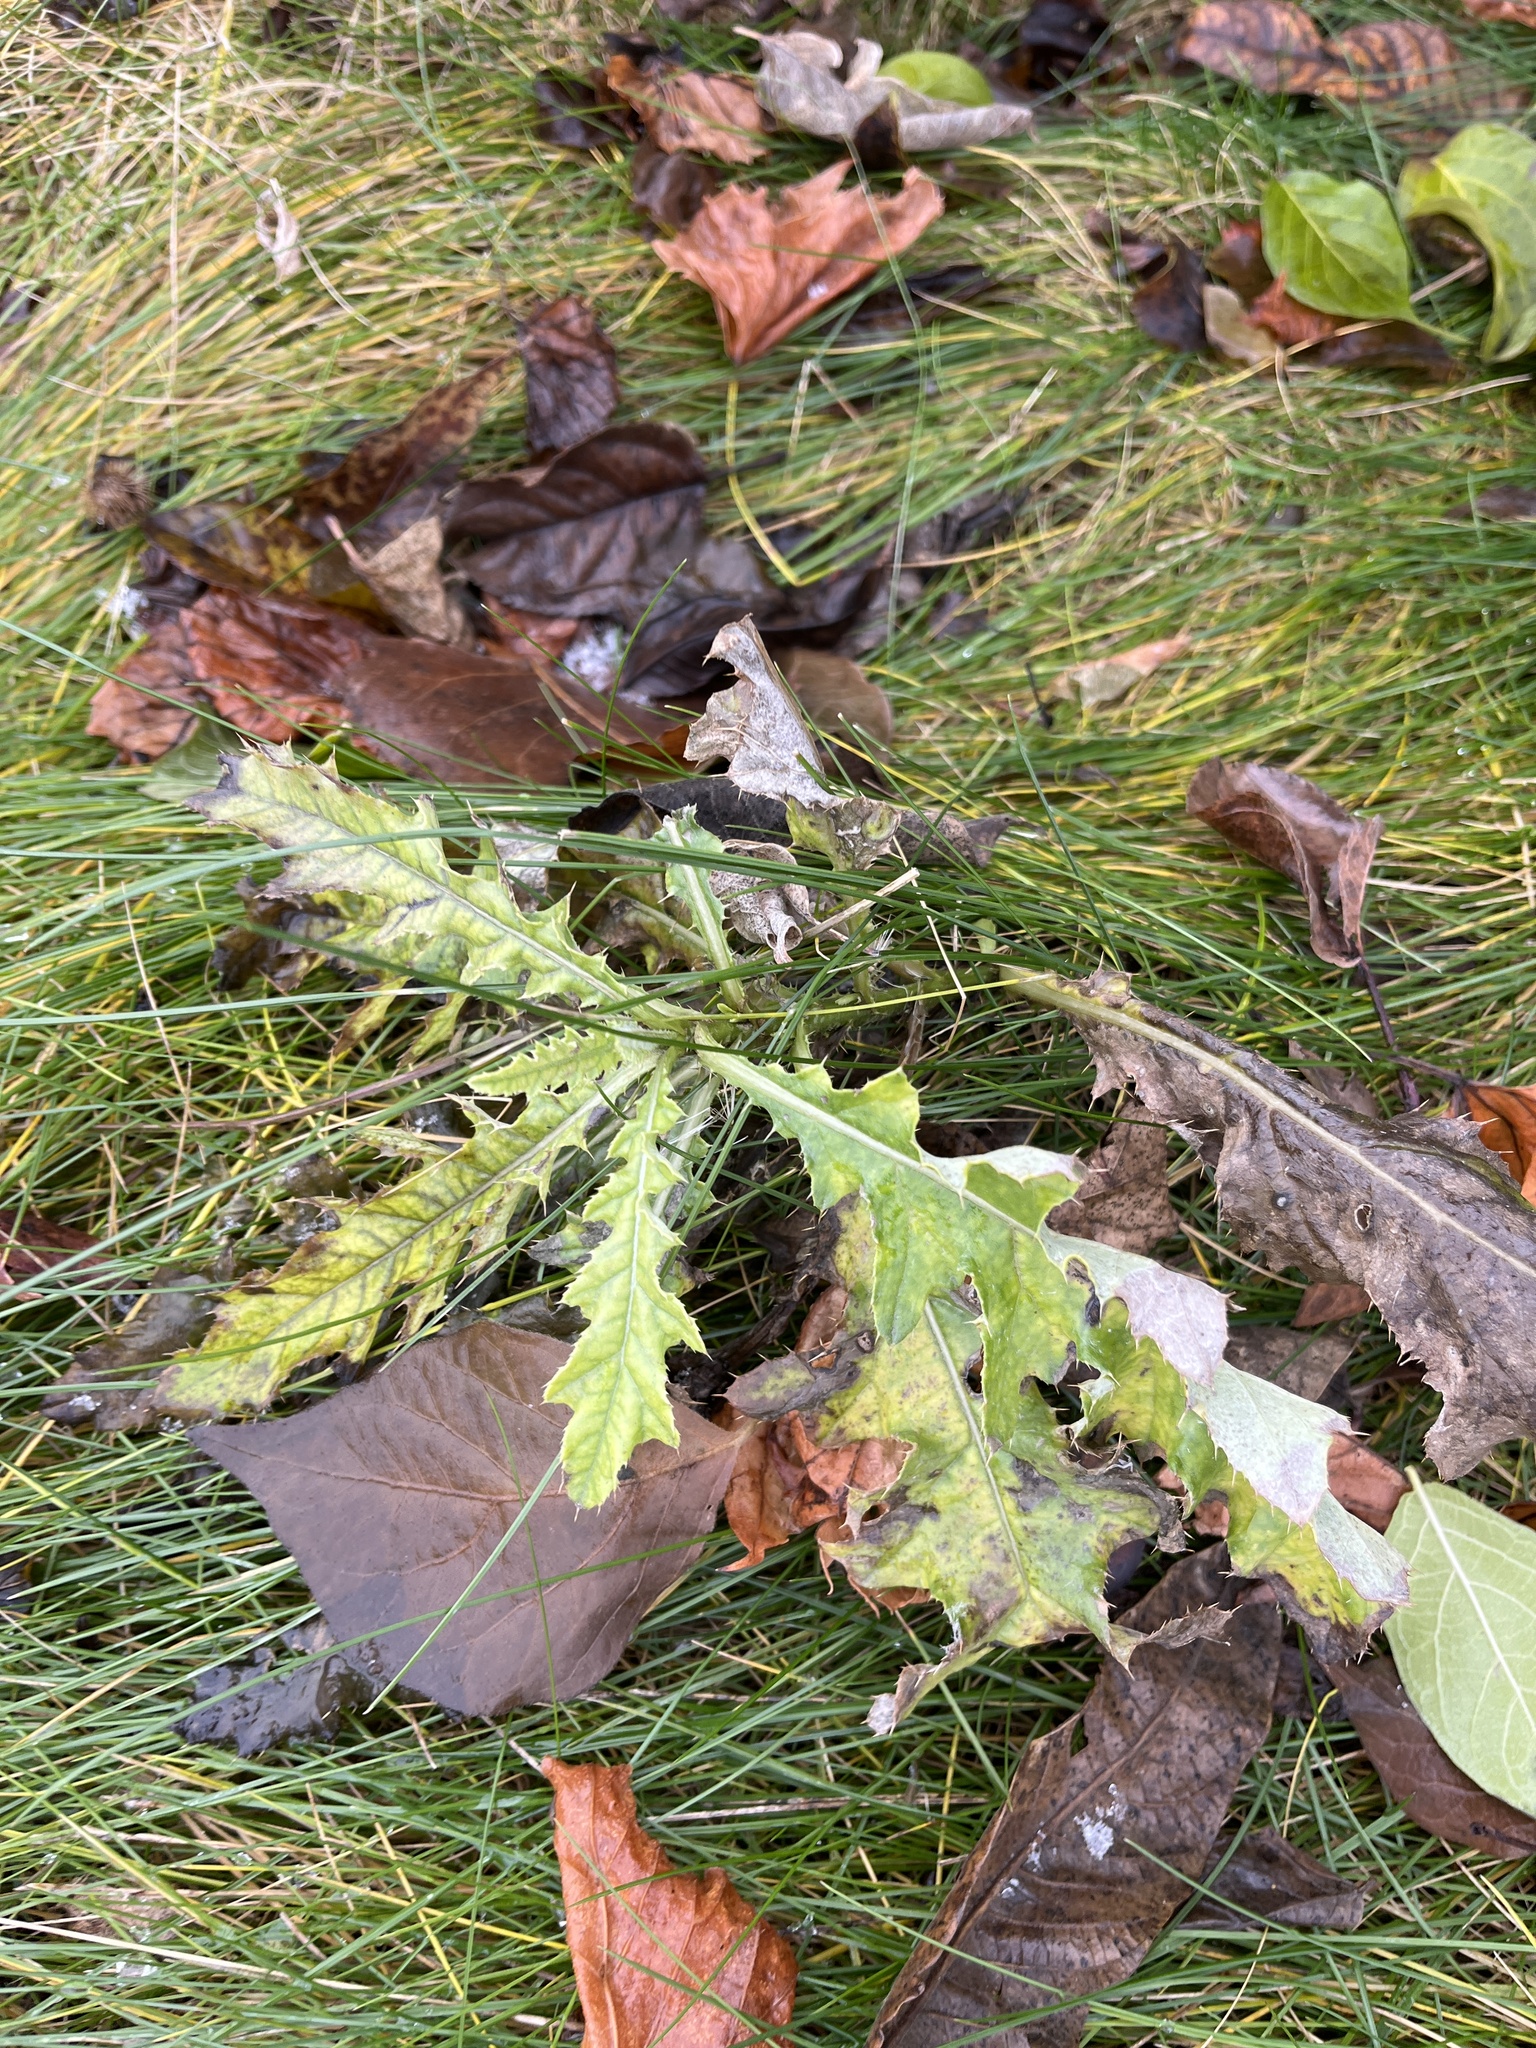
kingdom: Plantae
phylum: Tracheophyta
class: Magnoliopsida
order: Asterales
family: Asteraceae
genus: Cirsium
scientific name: Cirsium arvense
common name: Creeping thistle
